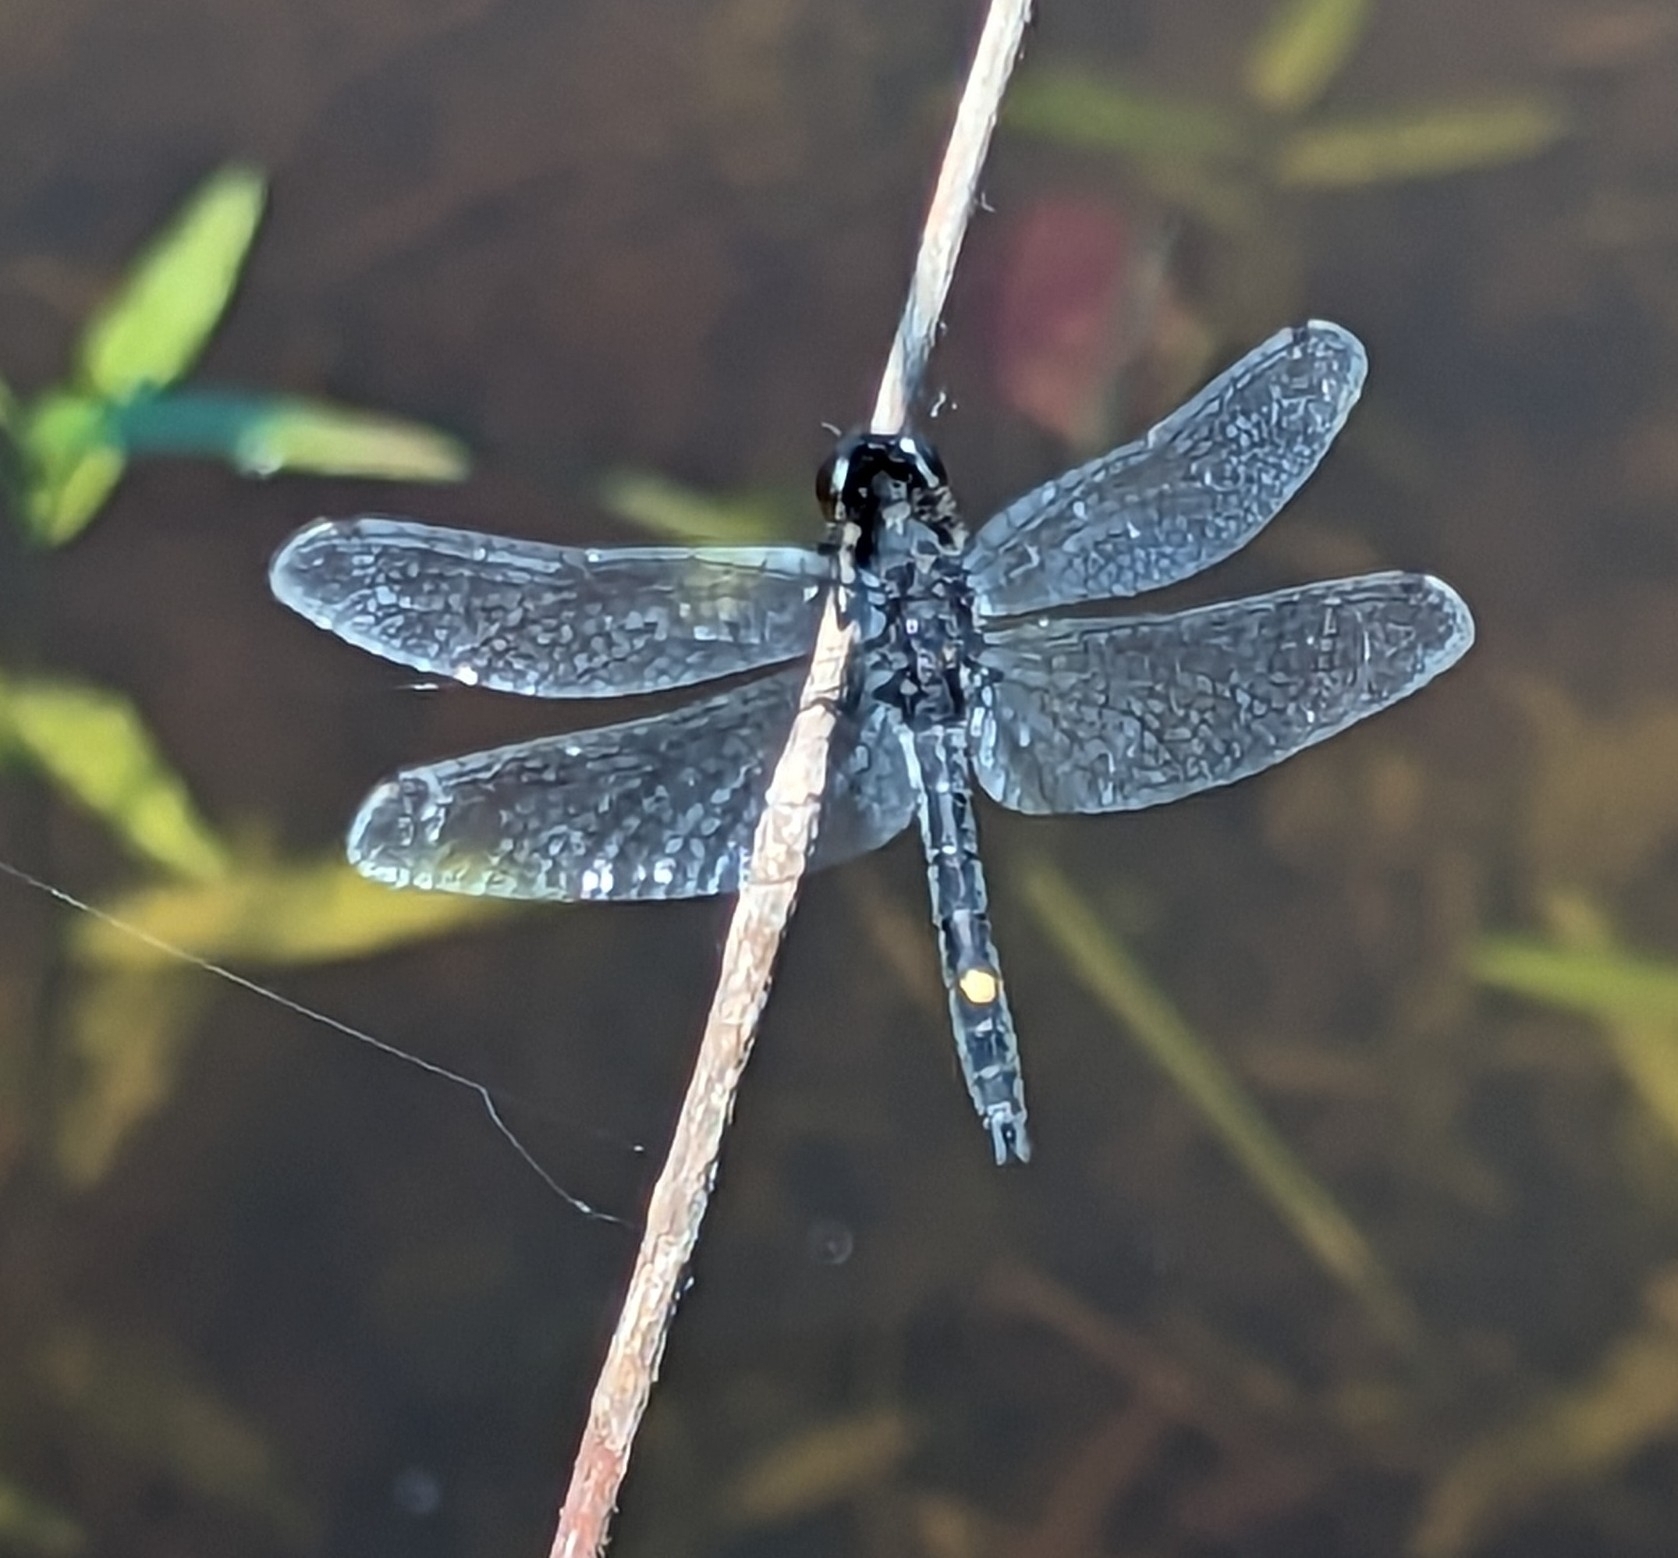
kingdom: Animalia
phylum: Arthropoda
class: Insecta
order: Odonata
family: Libellulidae
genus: Leucorrhinia
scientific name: Leucorrhinia intacta
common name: Dot-tailed whiteface
